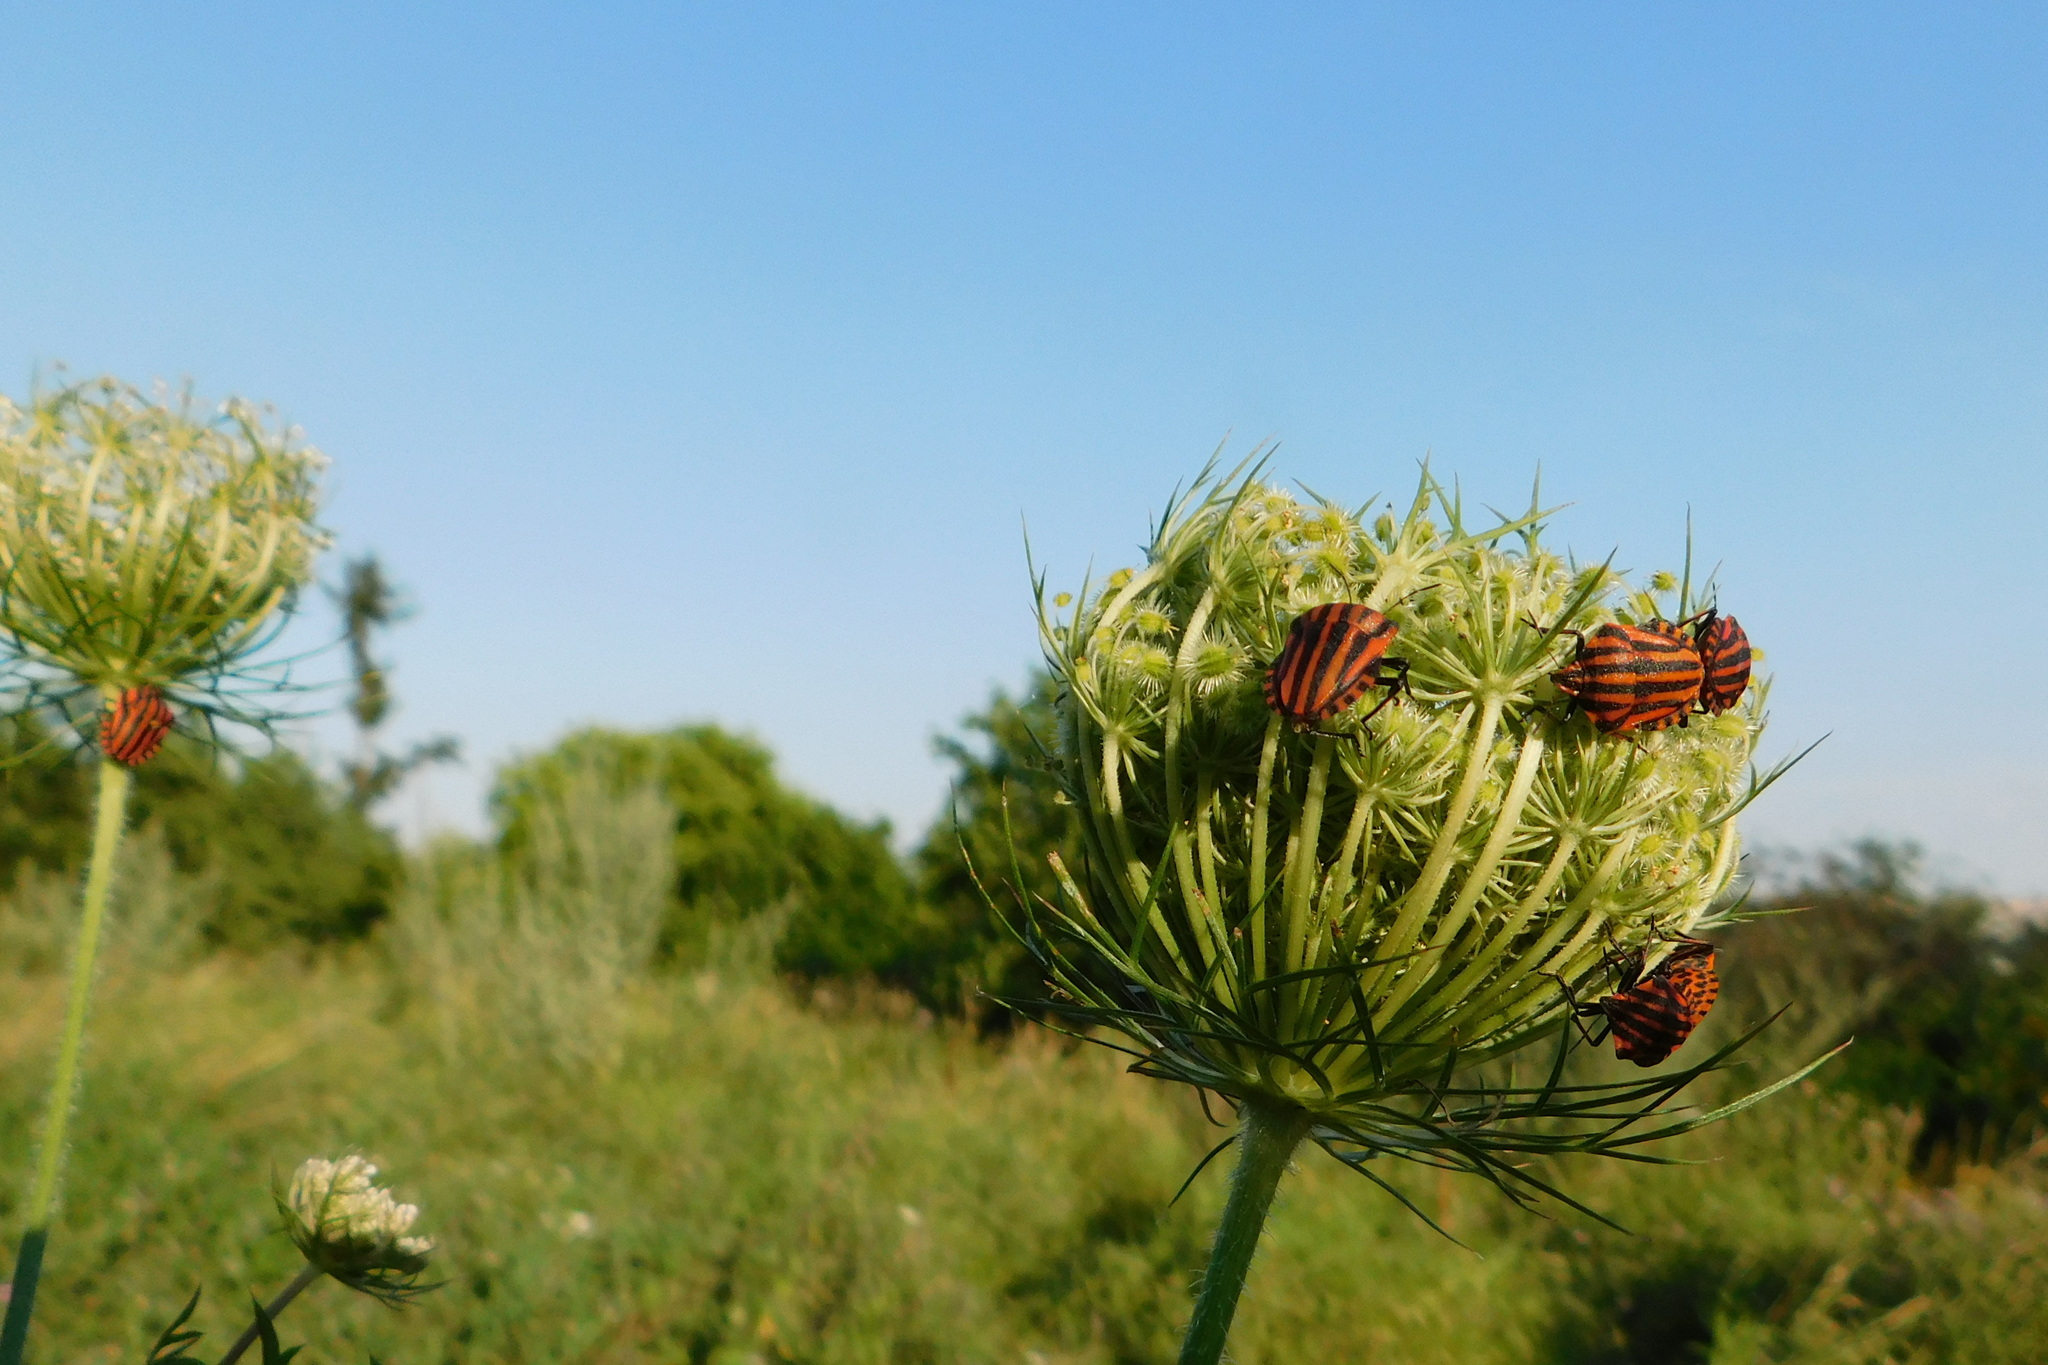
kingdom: Animalia
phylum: Arthropoda
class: Insecta
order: Hemiptera
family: Pentatomidae
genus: Graphosoma
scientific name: Graphosoma italicum
